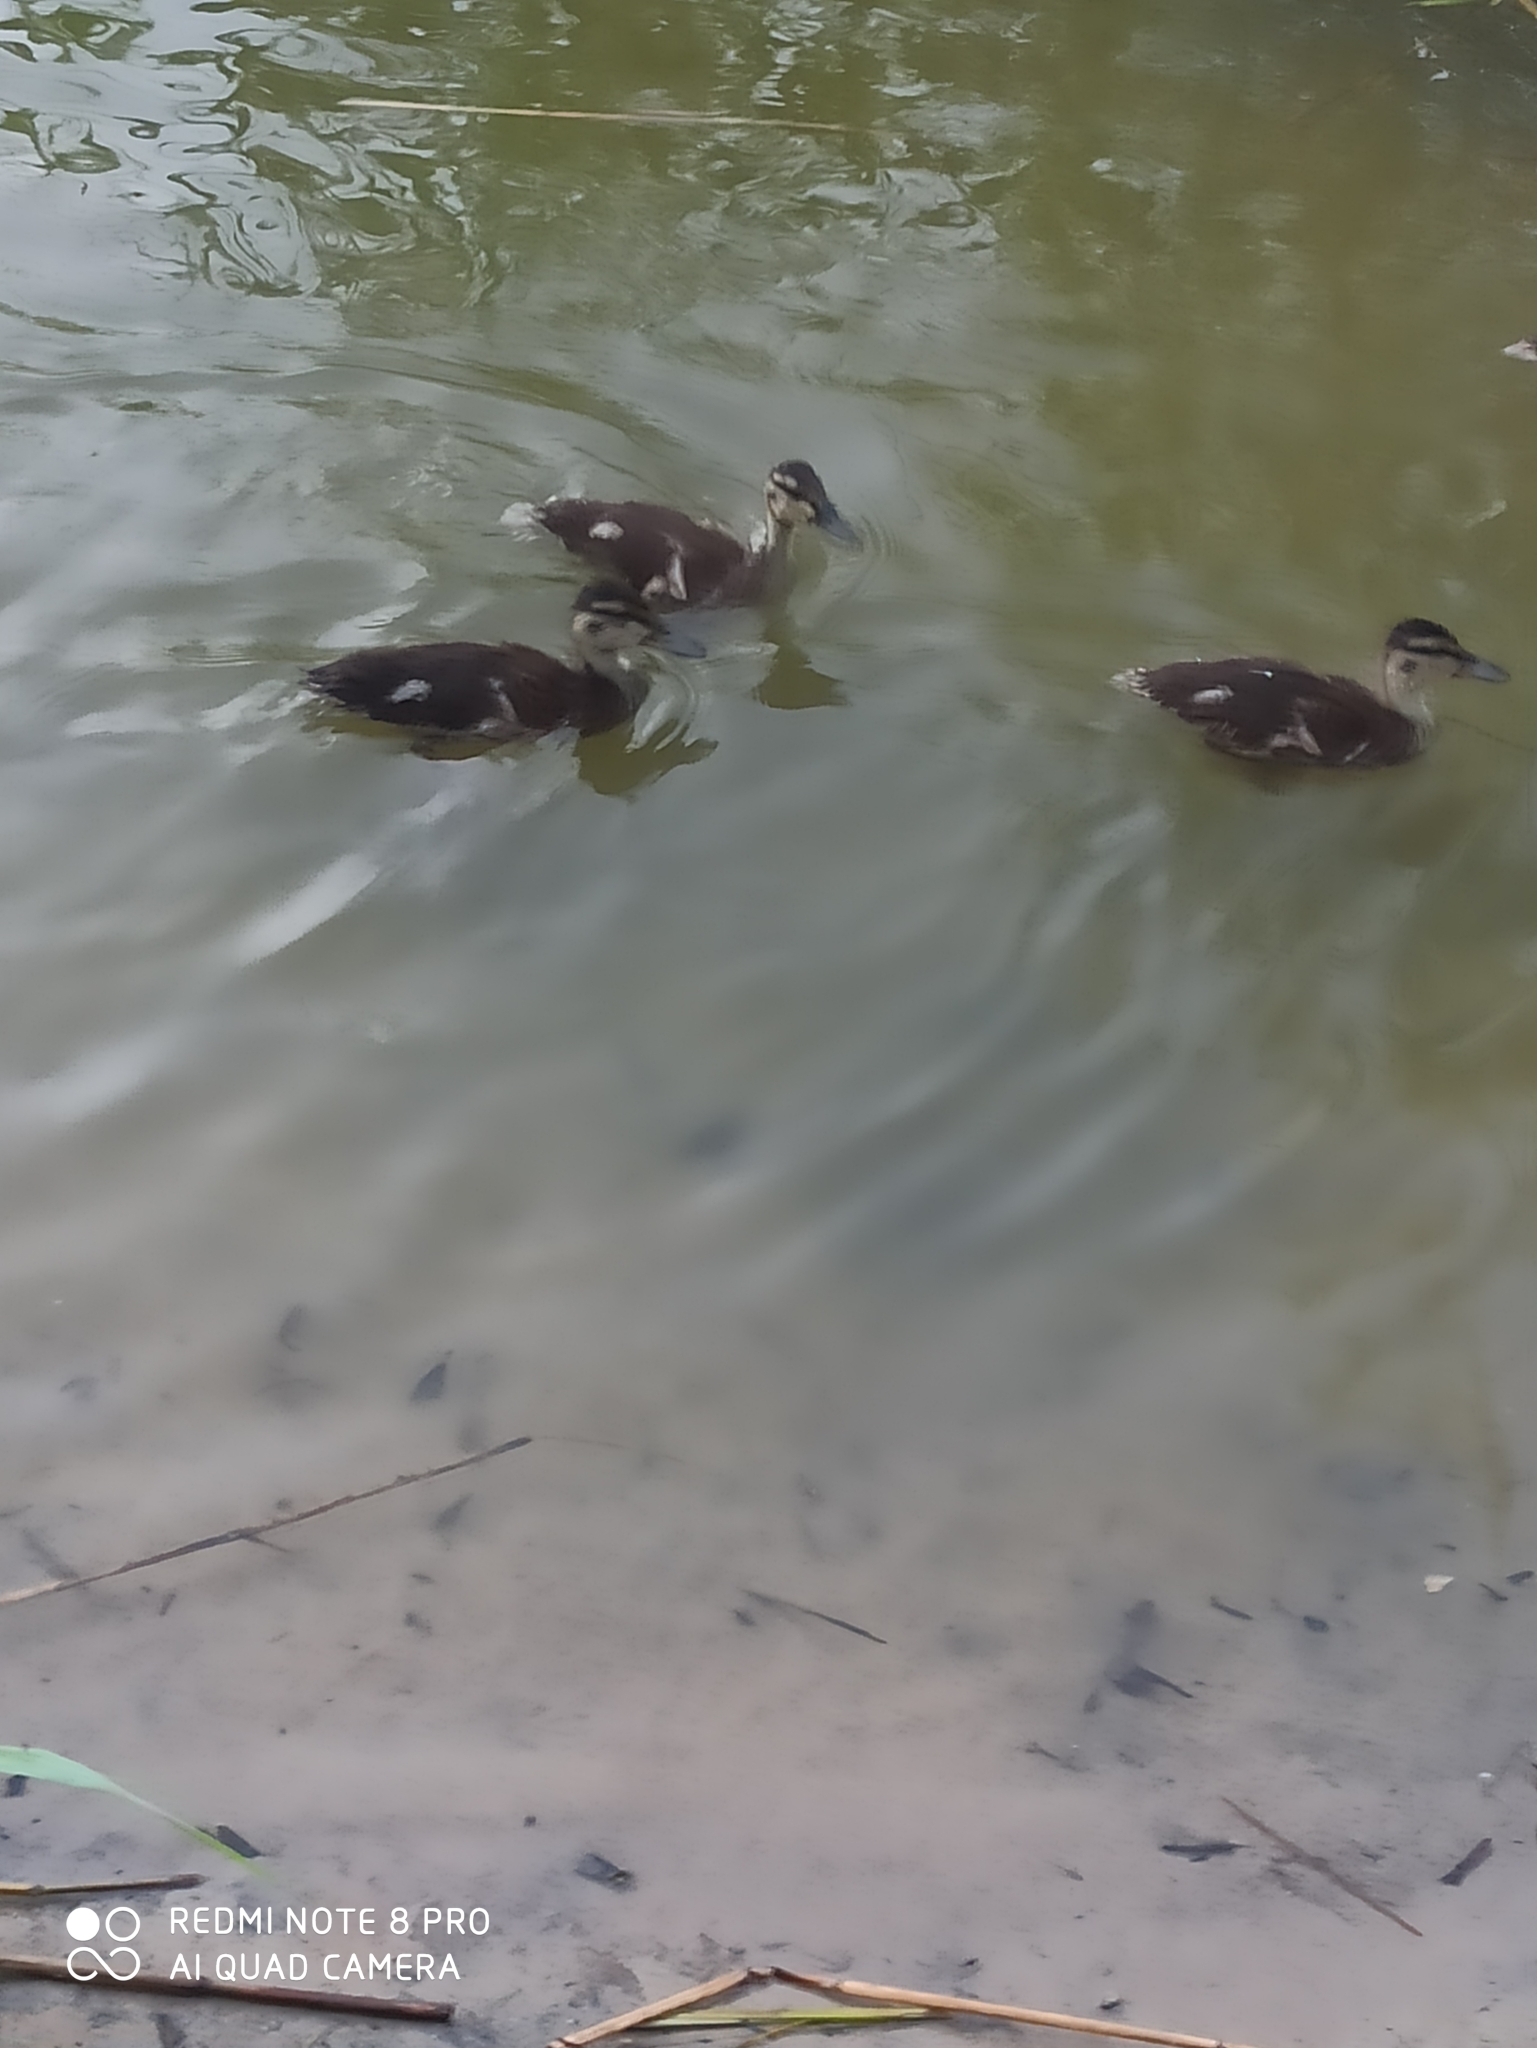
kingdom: Animalia
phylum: Chordata
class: Aves
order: Anseriformes
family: Anatidae
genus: Anas
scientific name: Anas platyrhynchos
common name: Mallard
